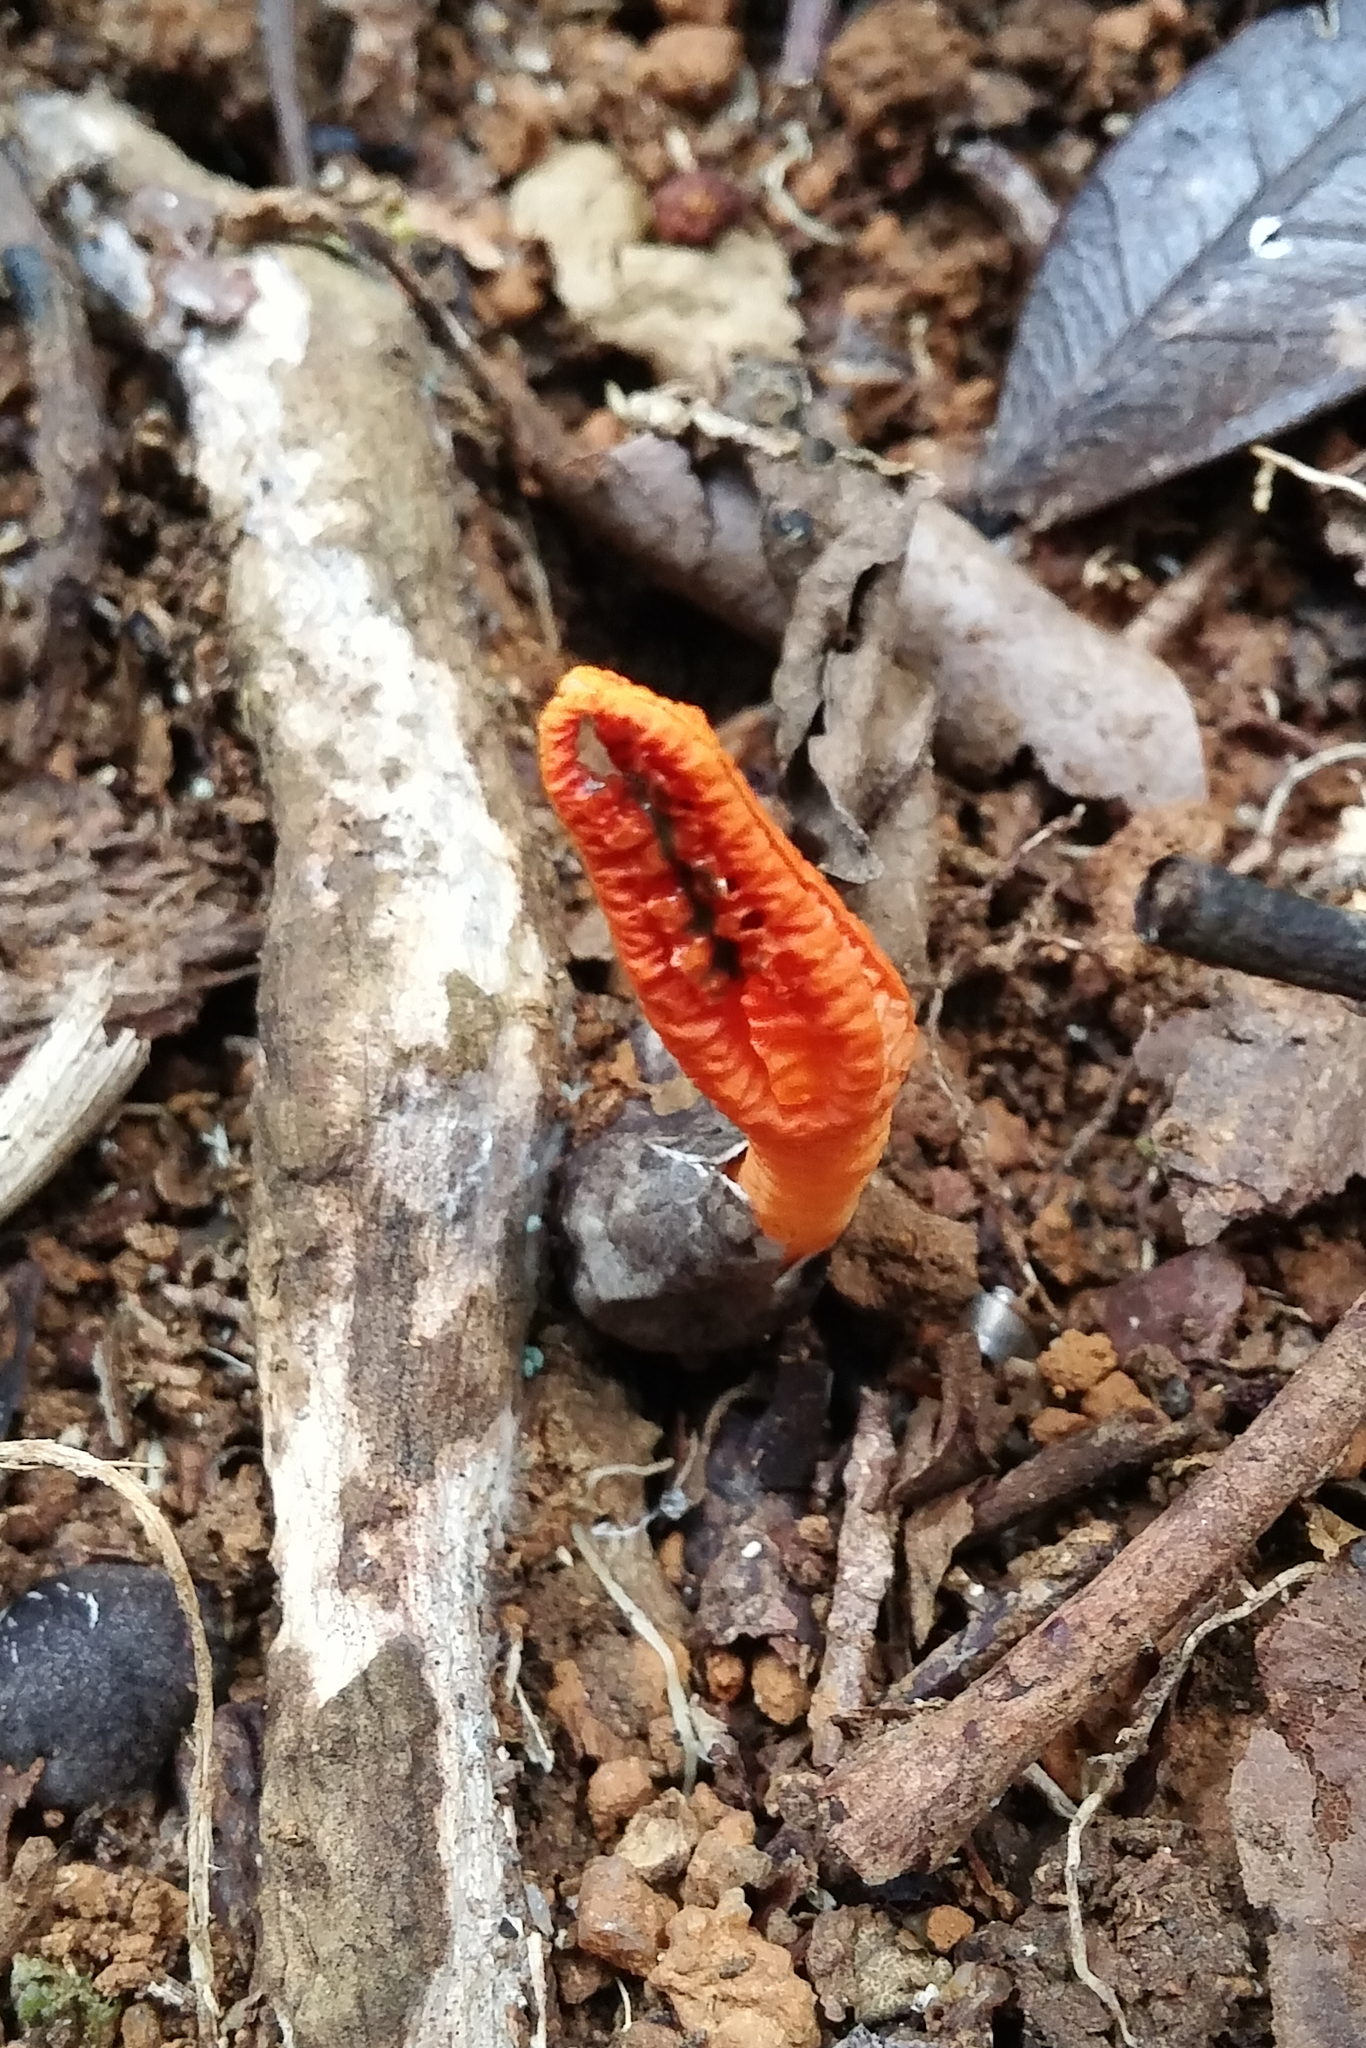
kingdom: Fungi
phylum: Basidiomycota
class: Agaricomycetes
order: Phallales
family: Phallaceae
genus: Pseudocolus
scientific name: Pseudocolus fusiformis
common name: Stinky squid
